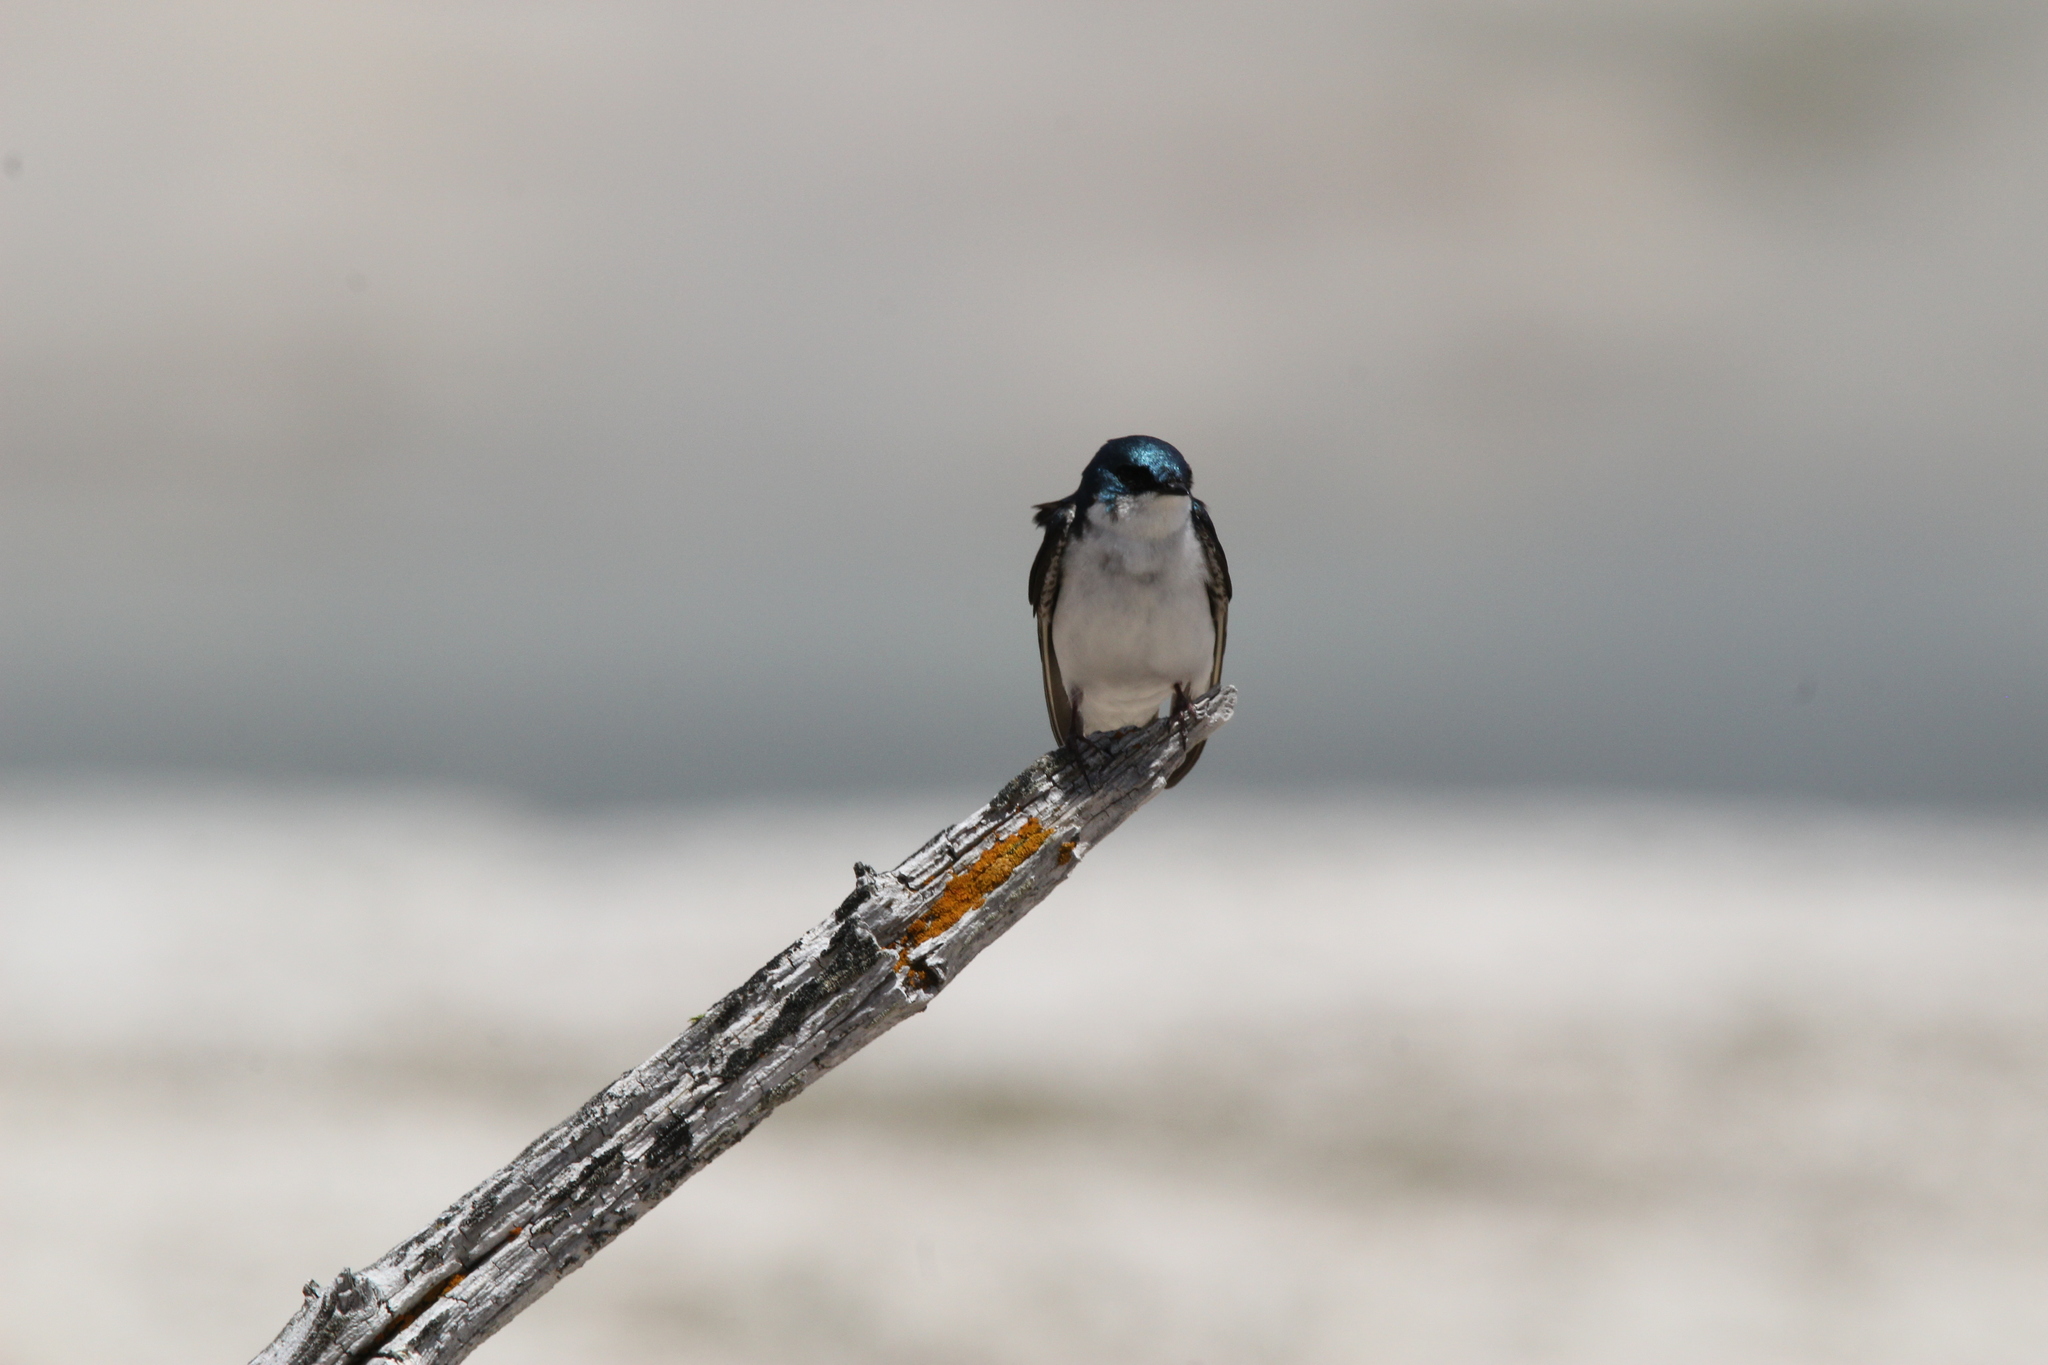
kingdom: Animalia
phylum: Chordata
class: Aves
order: Passeriformes
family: Hirundinidae
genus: Tachycineta
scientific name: Tachycineta bicolor
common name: Tree swallow
